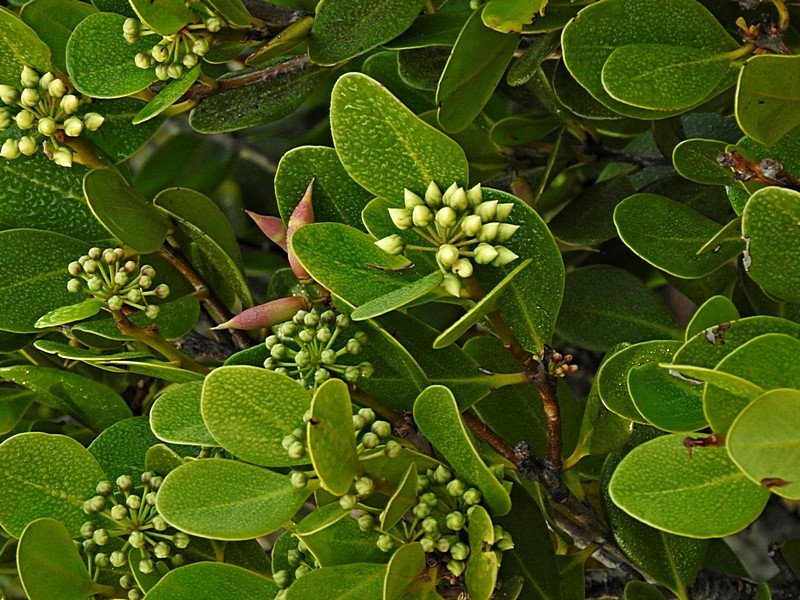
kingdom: Plantae
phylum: Tracheophyta
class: Magnoliopsida
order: Ericales
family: Primulaceae
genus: Aegiceras
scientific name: Aegiceras corniculatum
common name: River mangrove
